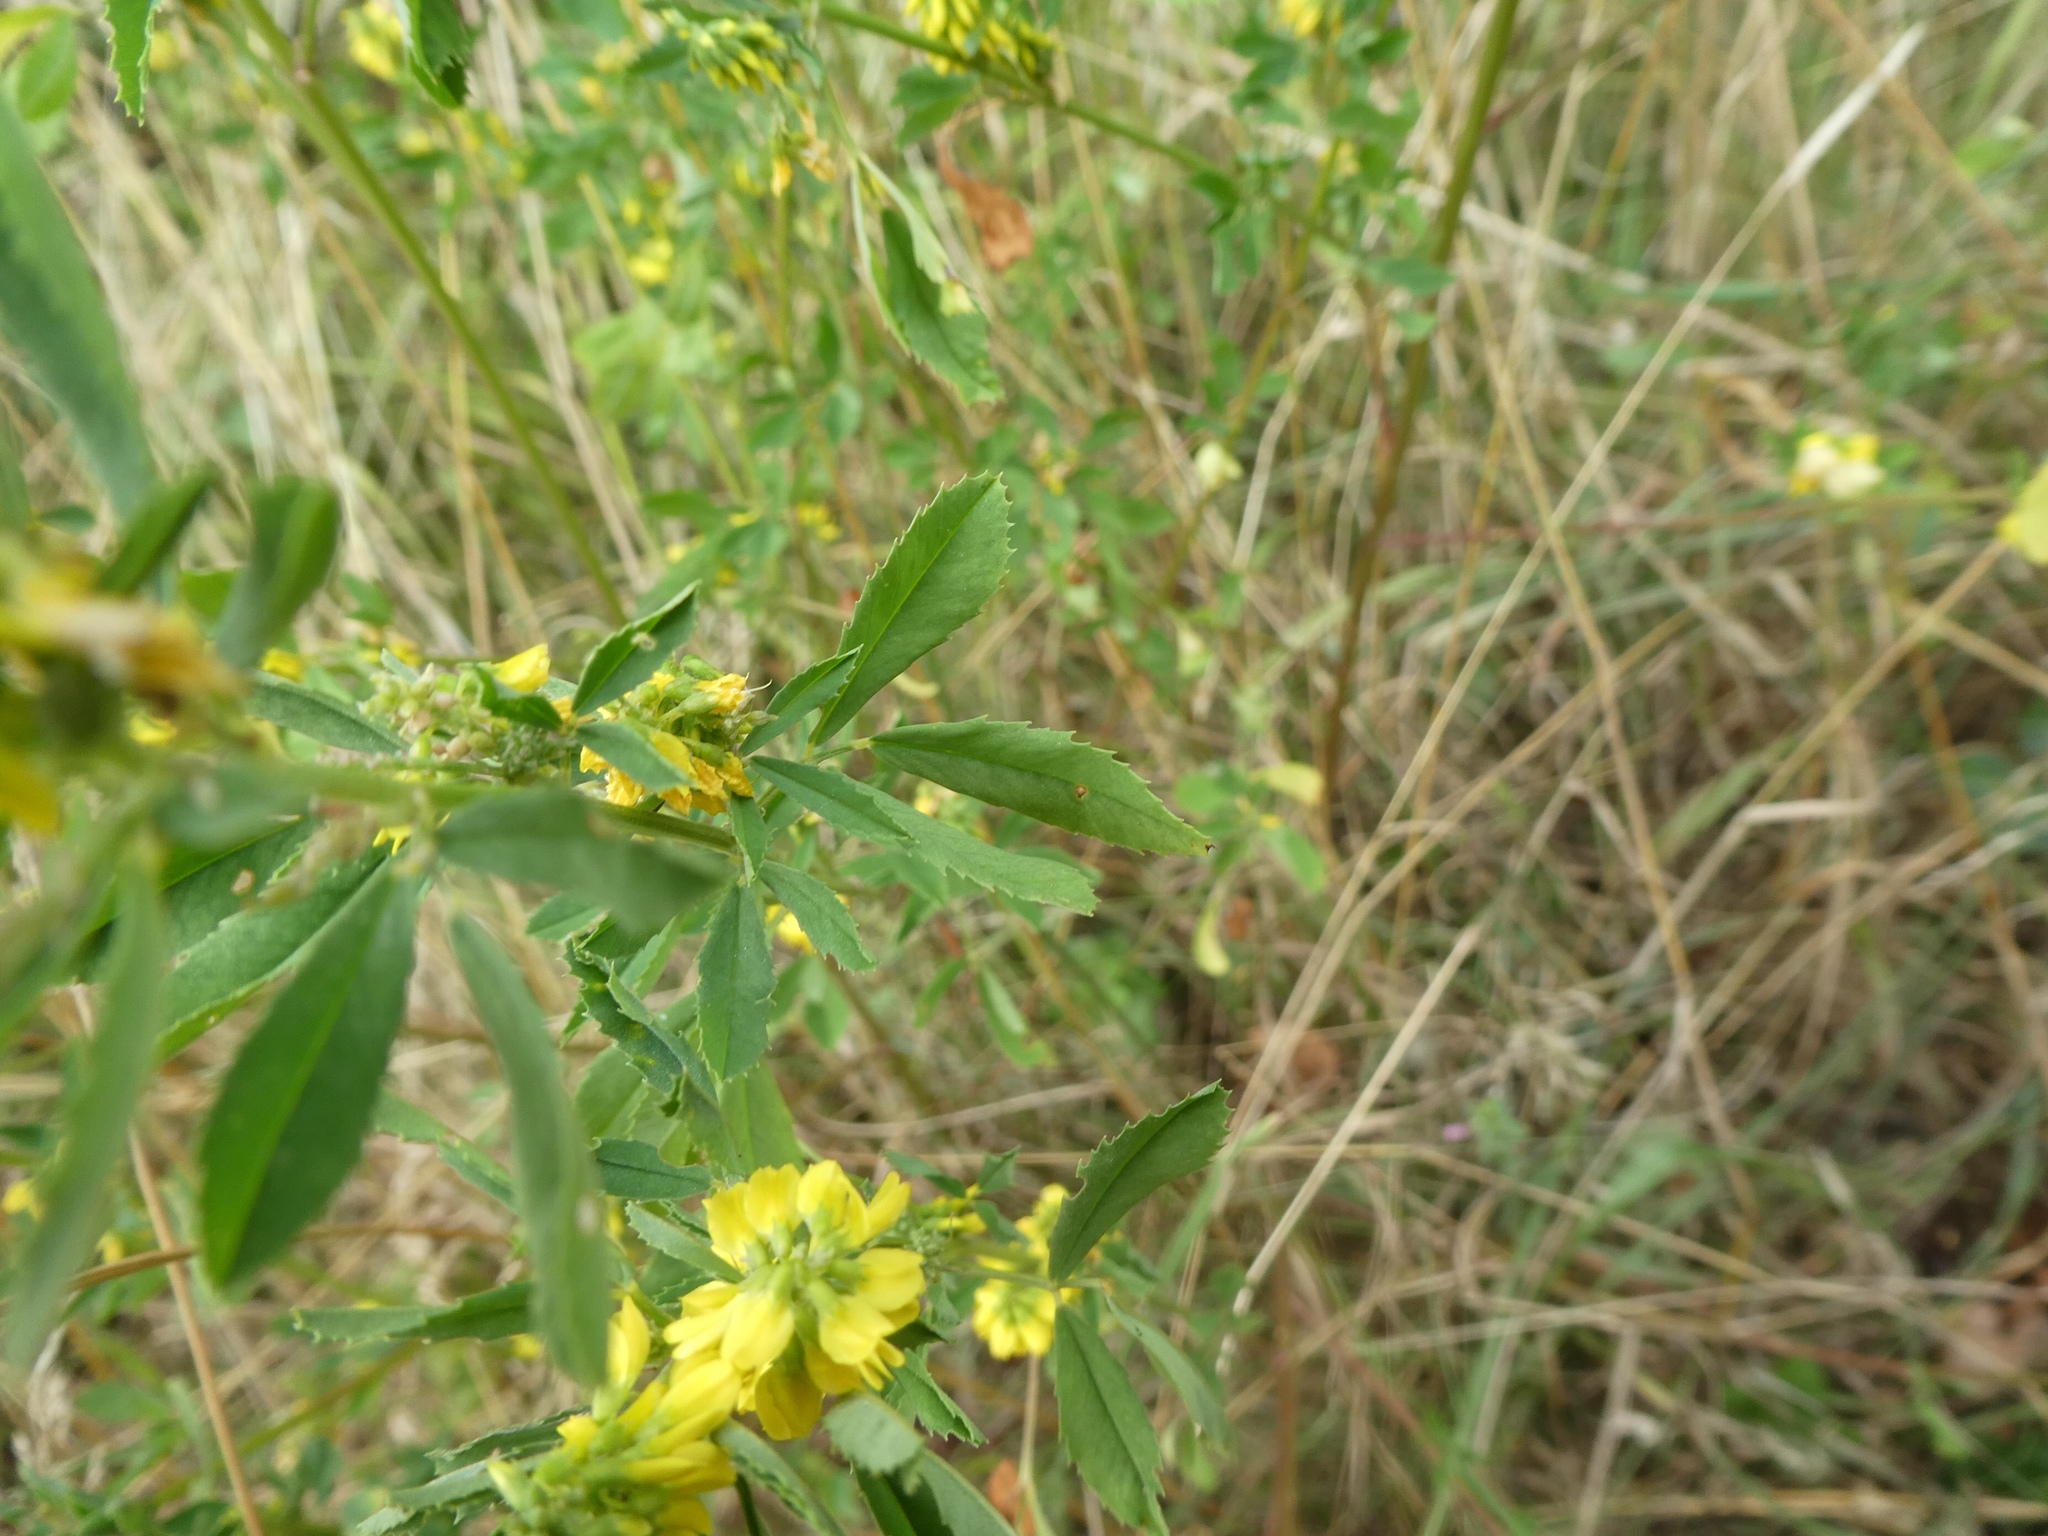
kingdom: Plantae
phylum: Tracheophyta
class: Magnoliopsida
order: Fabales
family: Fabaceae
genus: Melilotus
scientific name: Melilotus altissimus
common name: Tall melilot
